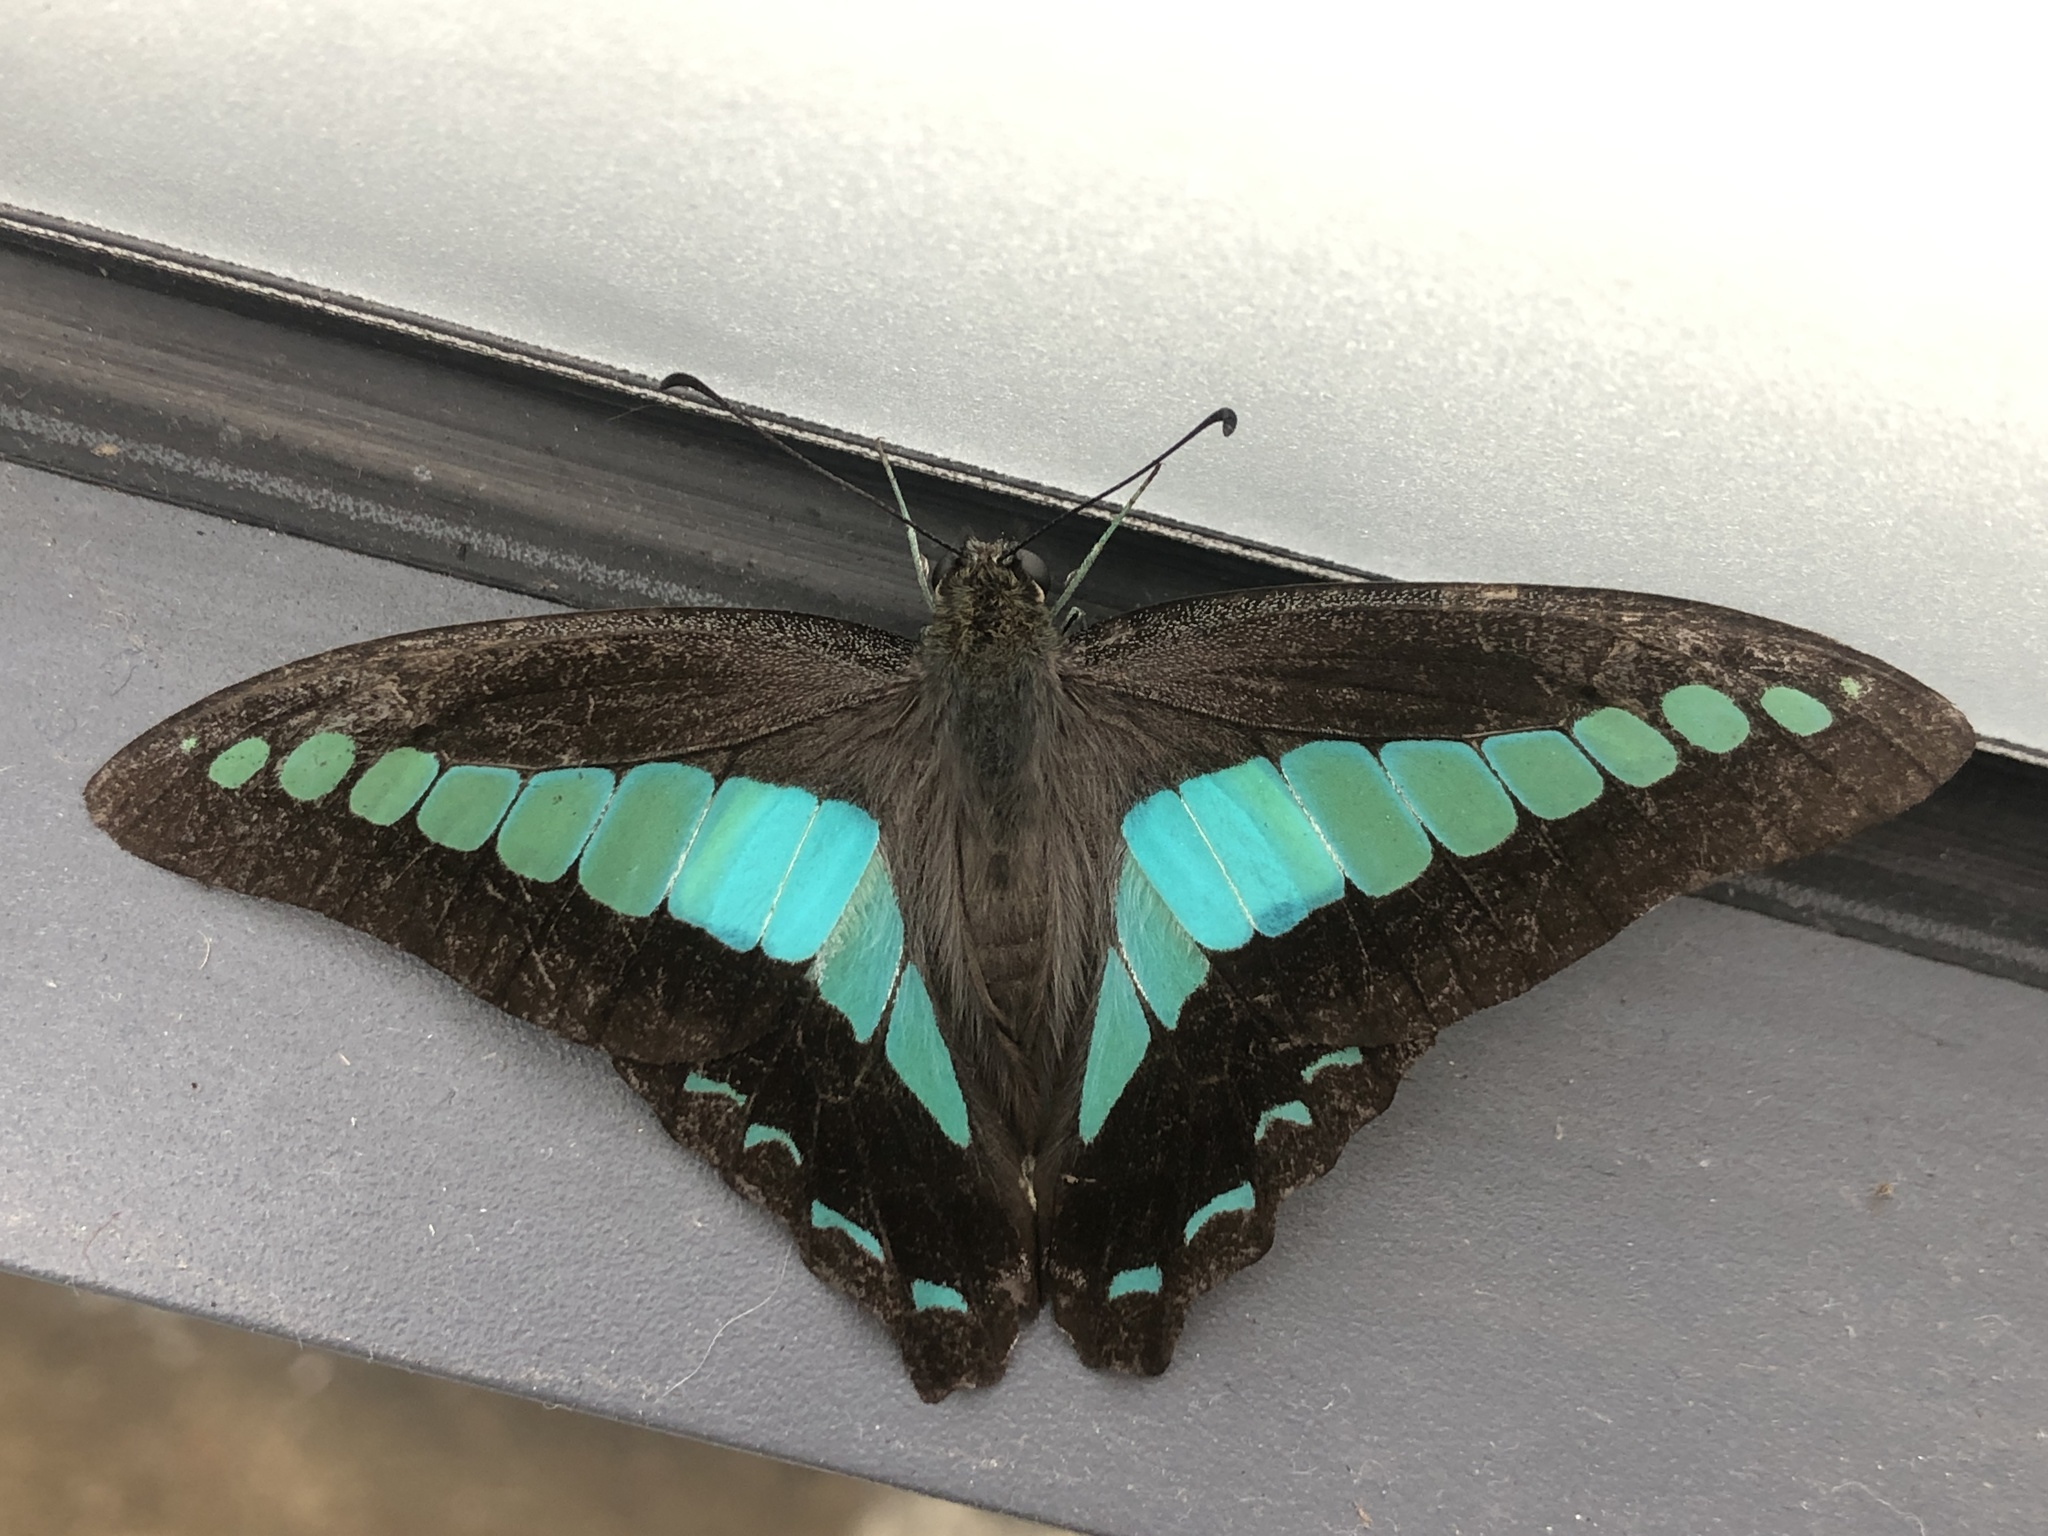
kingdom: Fungi
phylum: Ascomycota
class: Sordariomycetes
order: Microascales
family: Microascaceae
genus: Graphium
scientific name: Graphium sarpedon
